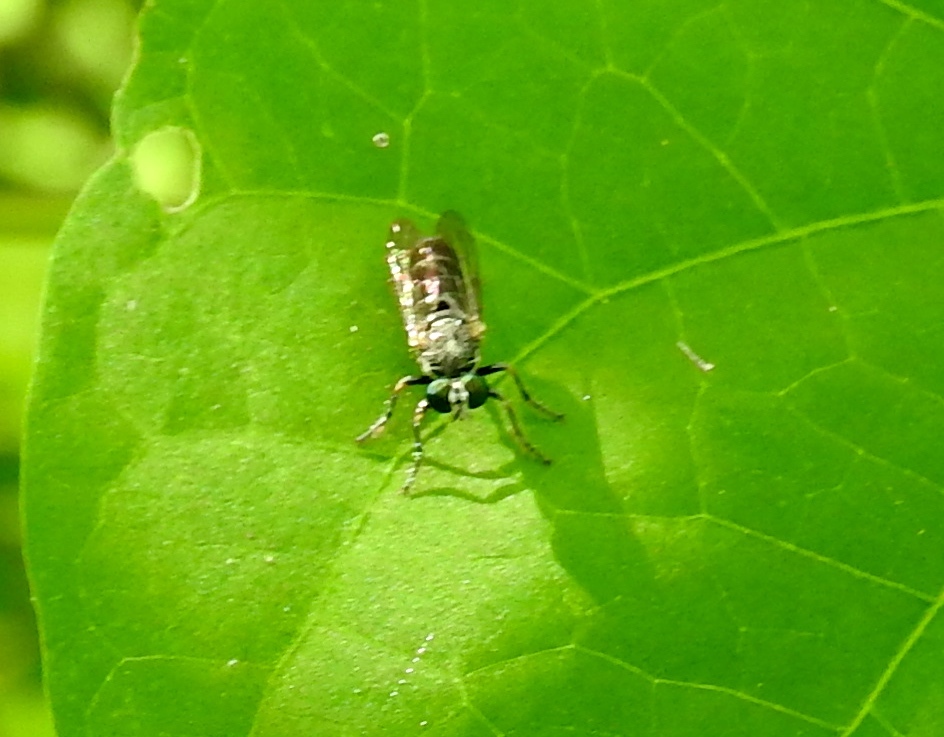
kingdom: Animalia
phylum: Arthropoda
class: Insecta
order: Diptera
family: Asilidae
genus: Atomosia
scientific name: Atomosia
